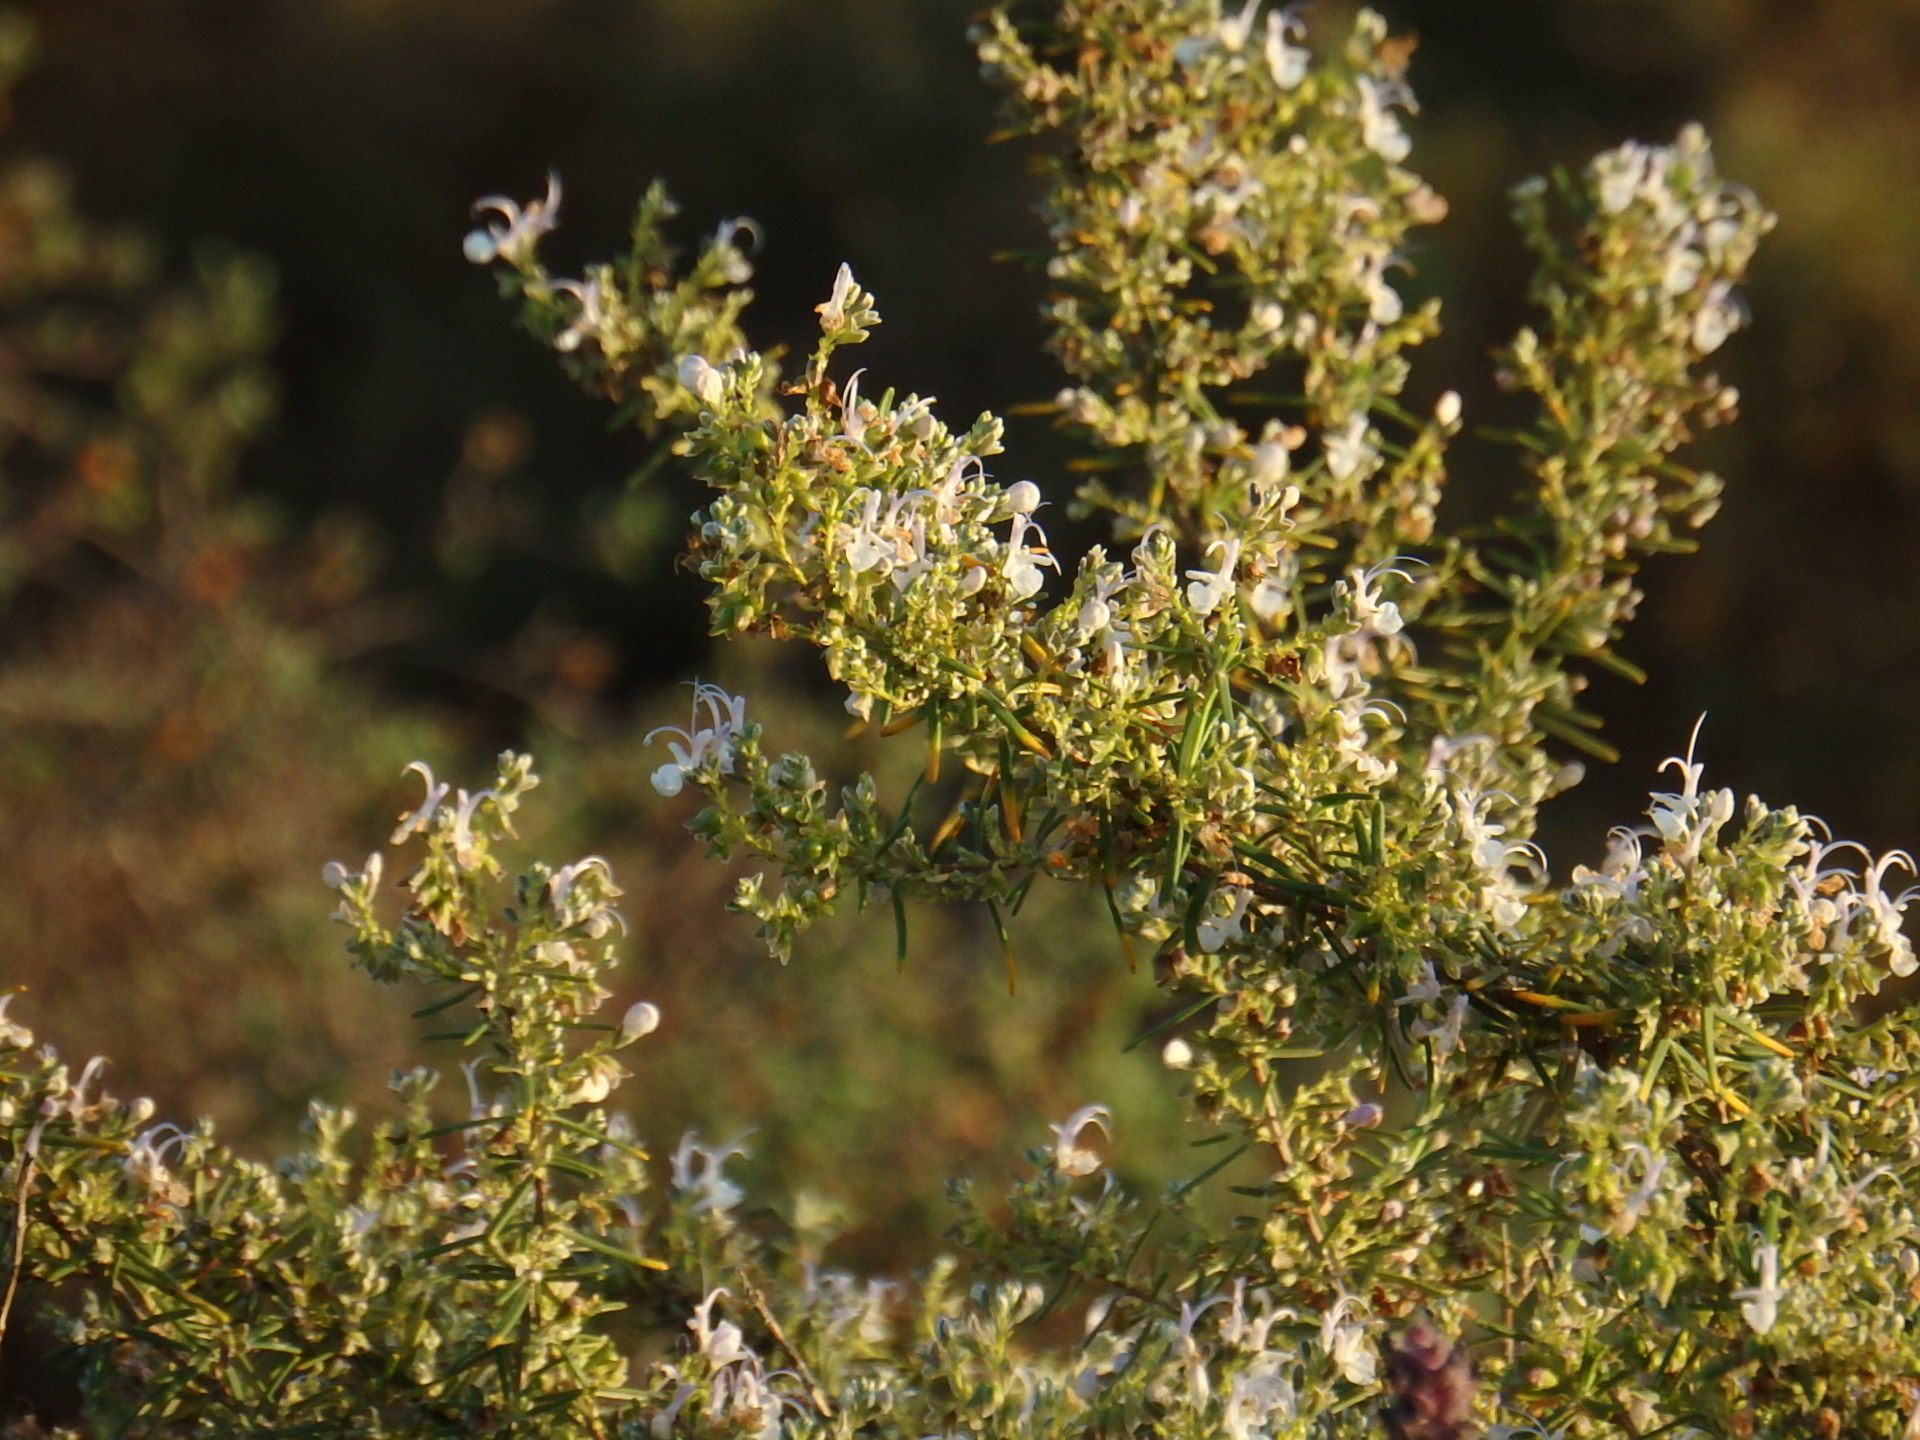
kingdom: Plantae
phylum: Tracheophyta
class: Magnoliopsida
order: Lamiales
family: Lamiaceae
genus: Salvia
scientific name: Salvia rosmarinus
